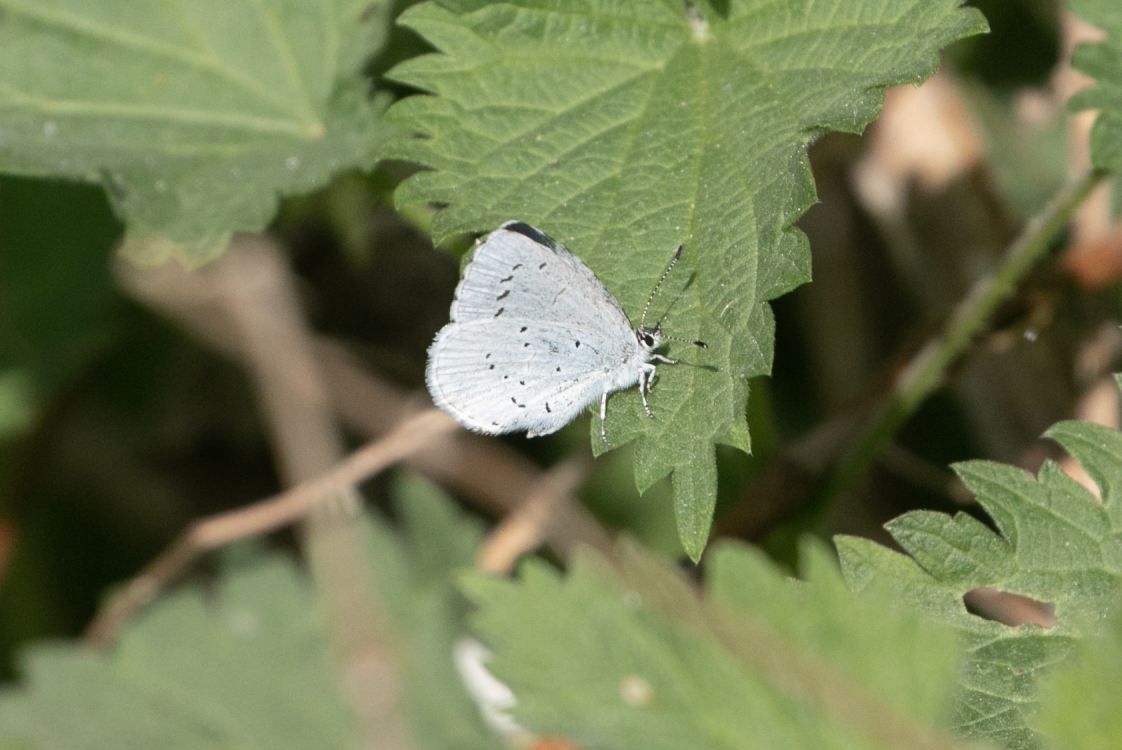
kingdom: Animalia
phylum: Arthropoda
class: Insecta
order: Lepidoptera
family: Lycaenidae
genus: Celastrina
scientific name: Celastrina argiolus
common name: Holly blue
